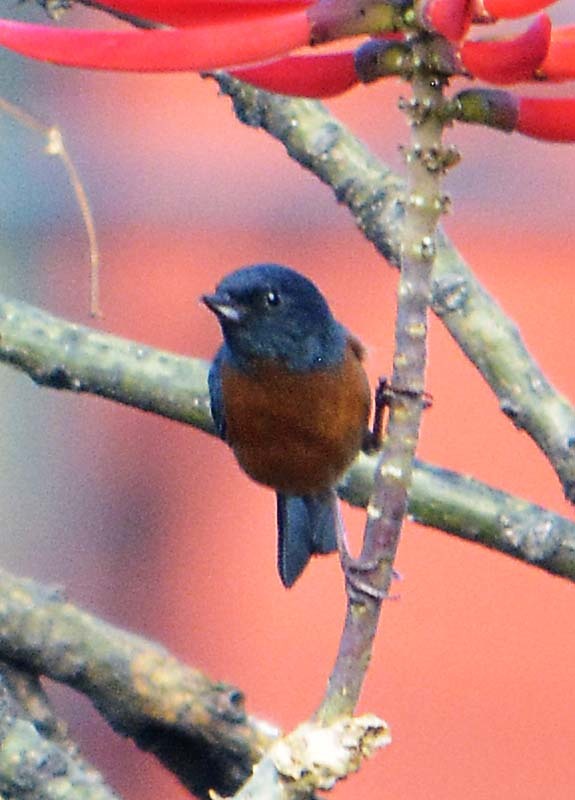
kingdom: Animalia
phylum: Chordata
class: Aves
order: Passeriformes
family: Thraupidae
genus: Diglossa
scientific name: Diglossa baritula
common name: Cinnamon-bellied flowerpiercer
